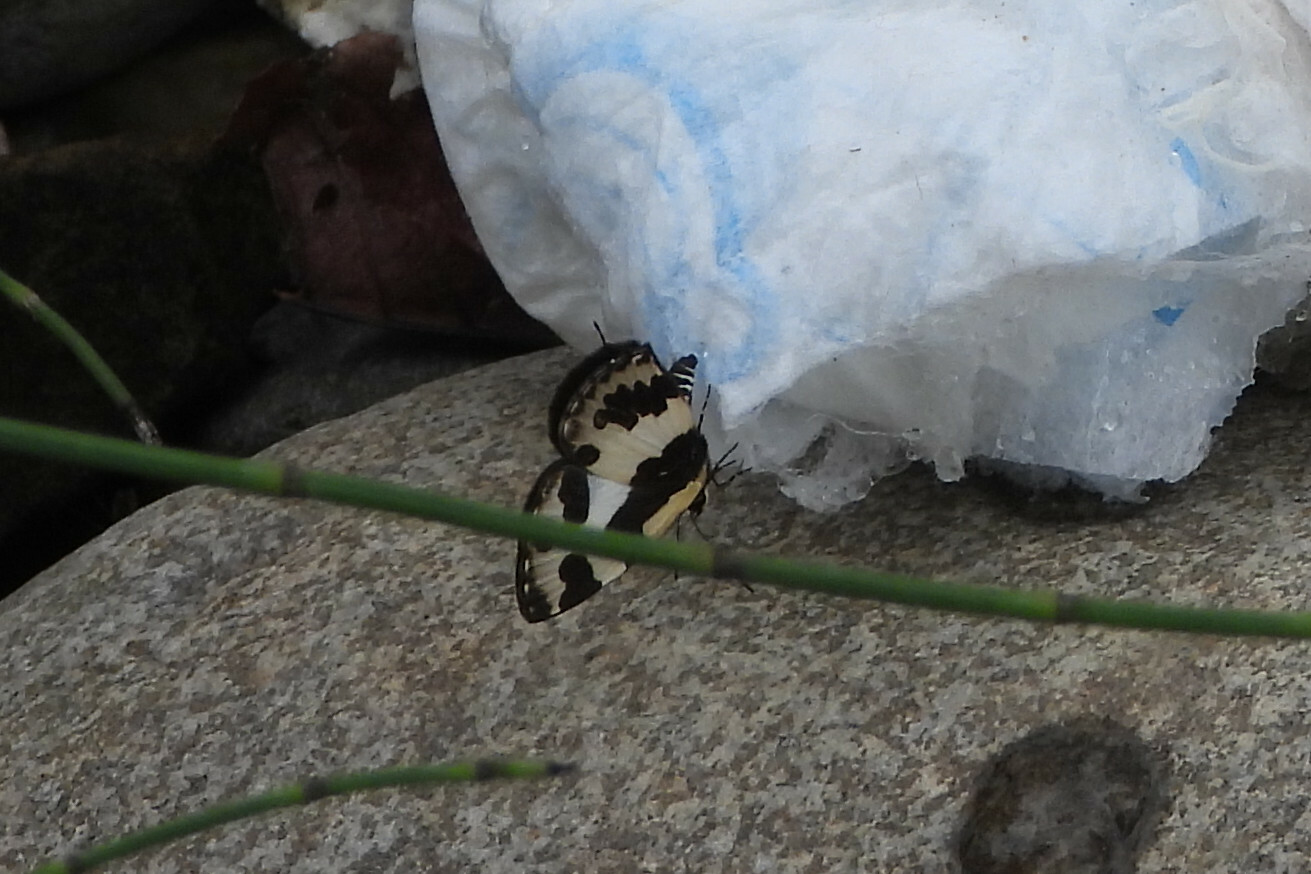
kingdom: Animalia
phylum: Arthropoda
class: Insecta
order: Lepidoptera
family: Lycaenidae
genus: Caleta
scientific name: Caleta elna
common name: Elbowed pierrot
